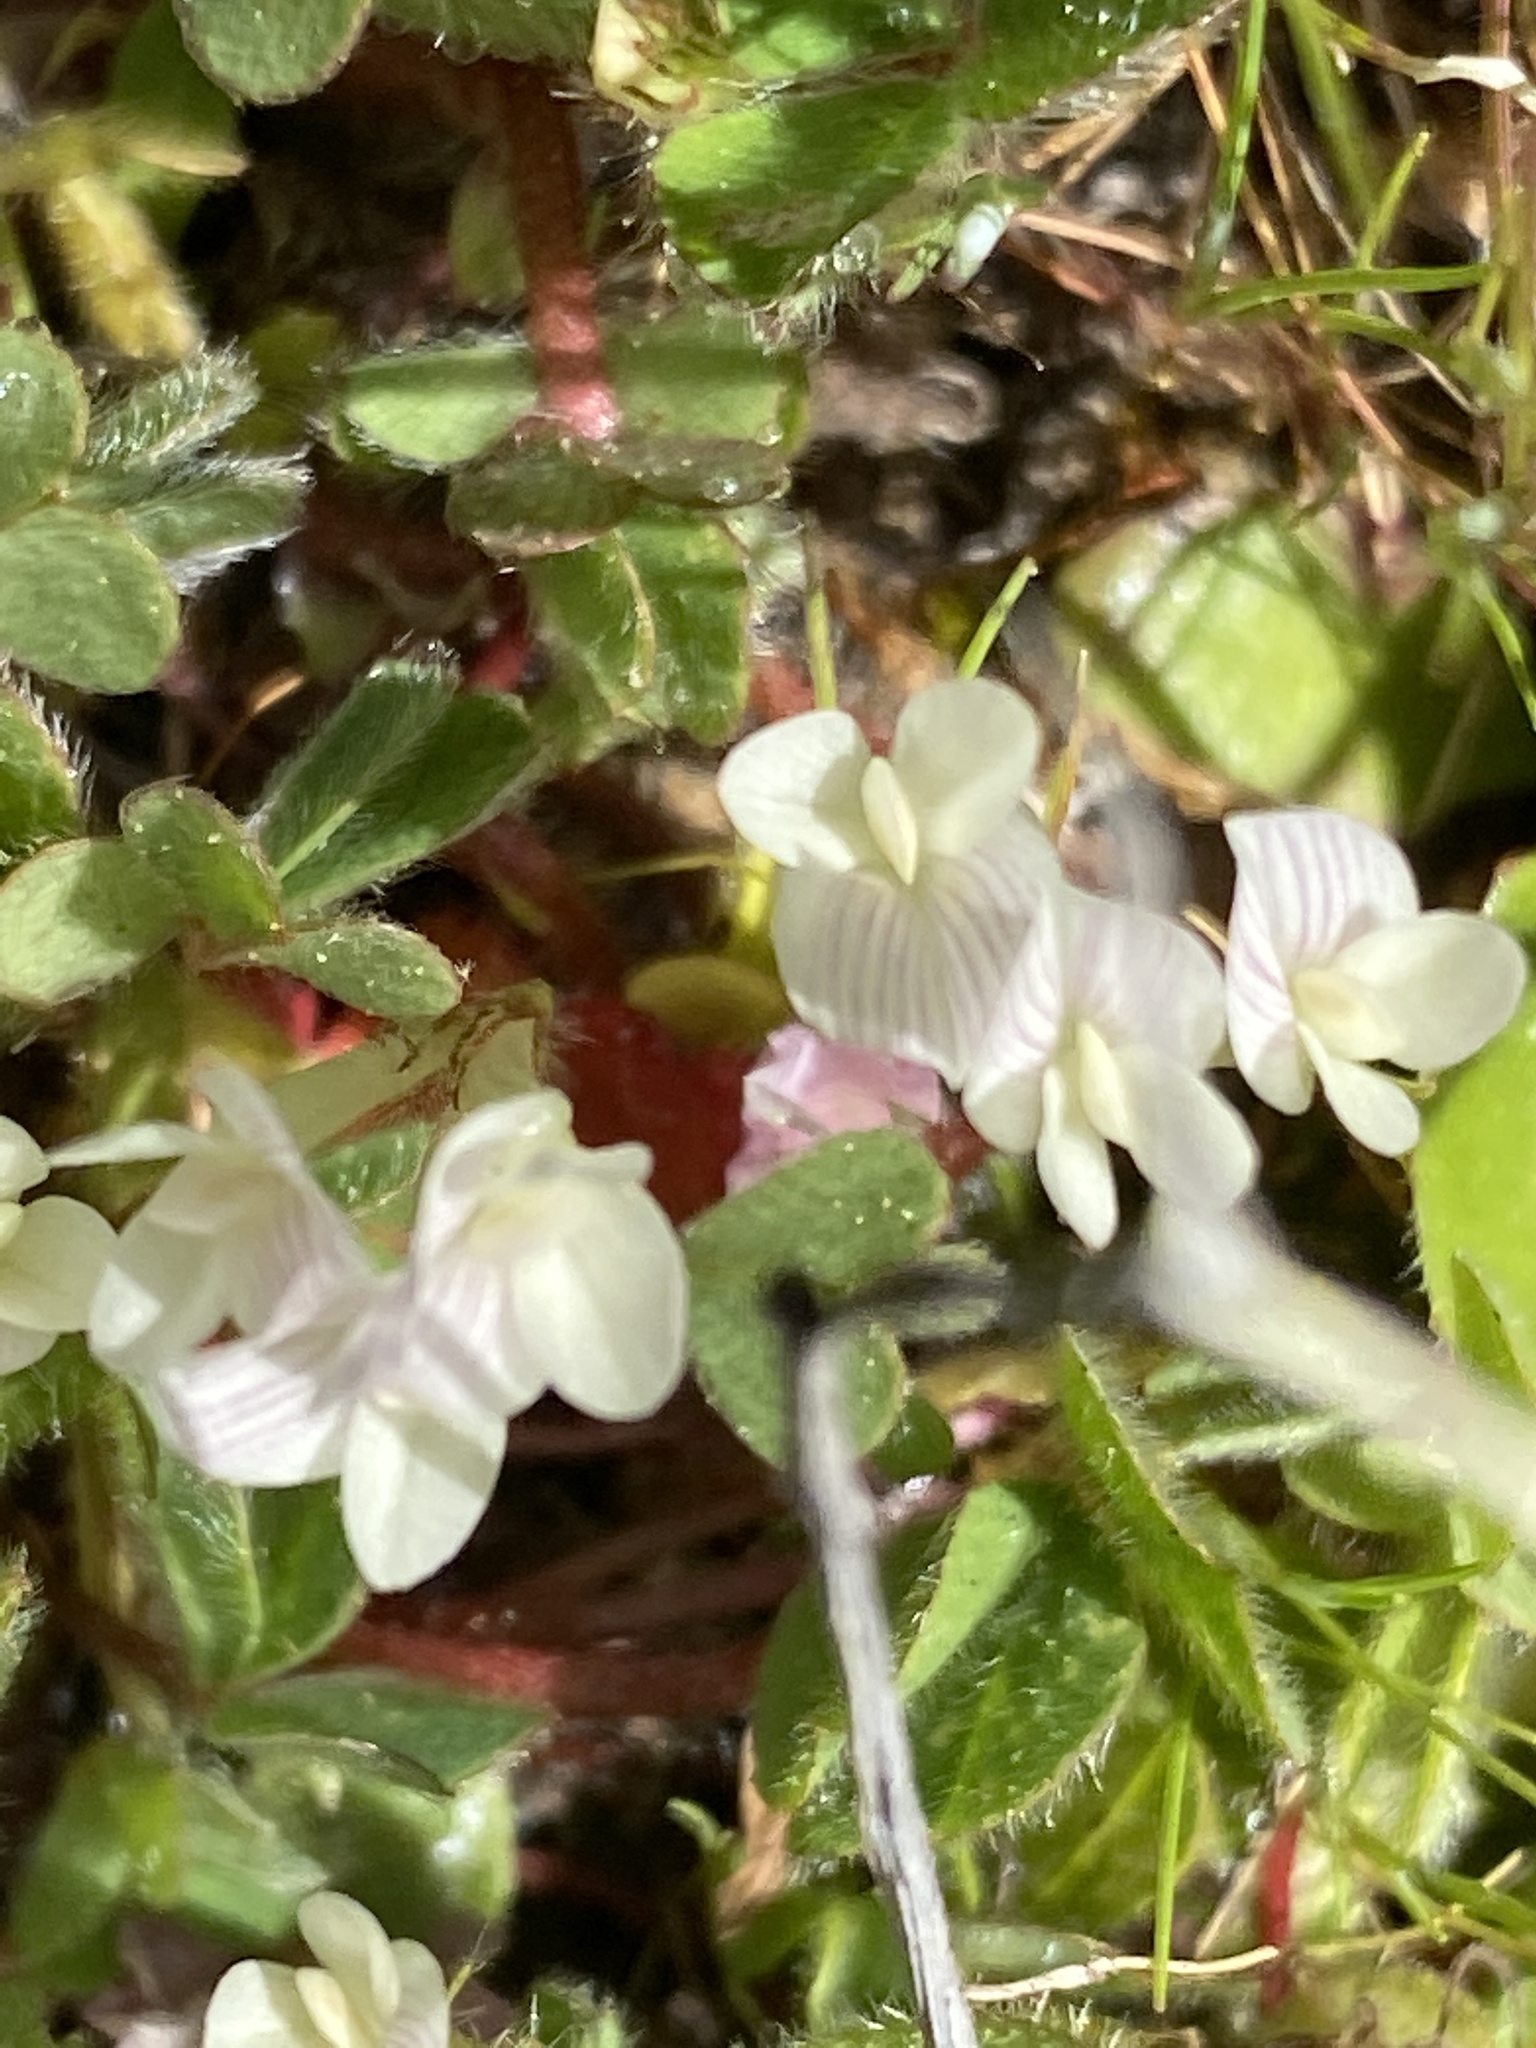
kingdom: Plantae
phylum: Tracheophyta
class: Magnoliopsida
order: Fabales
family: Fabaceae
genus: Trifolium
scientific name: Trifolium subterraneum
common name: Subterranean clover
